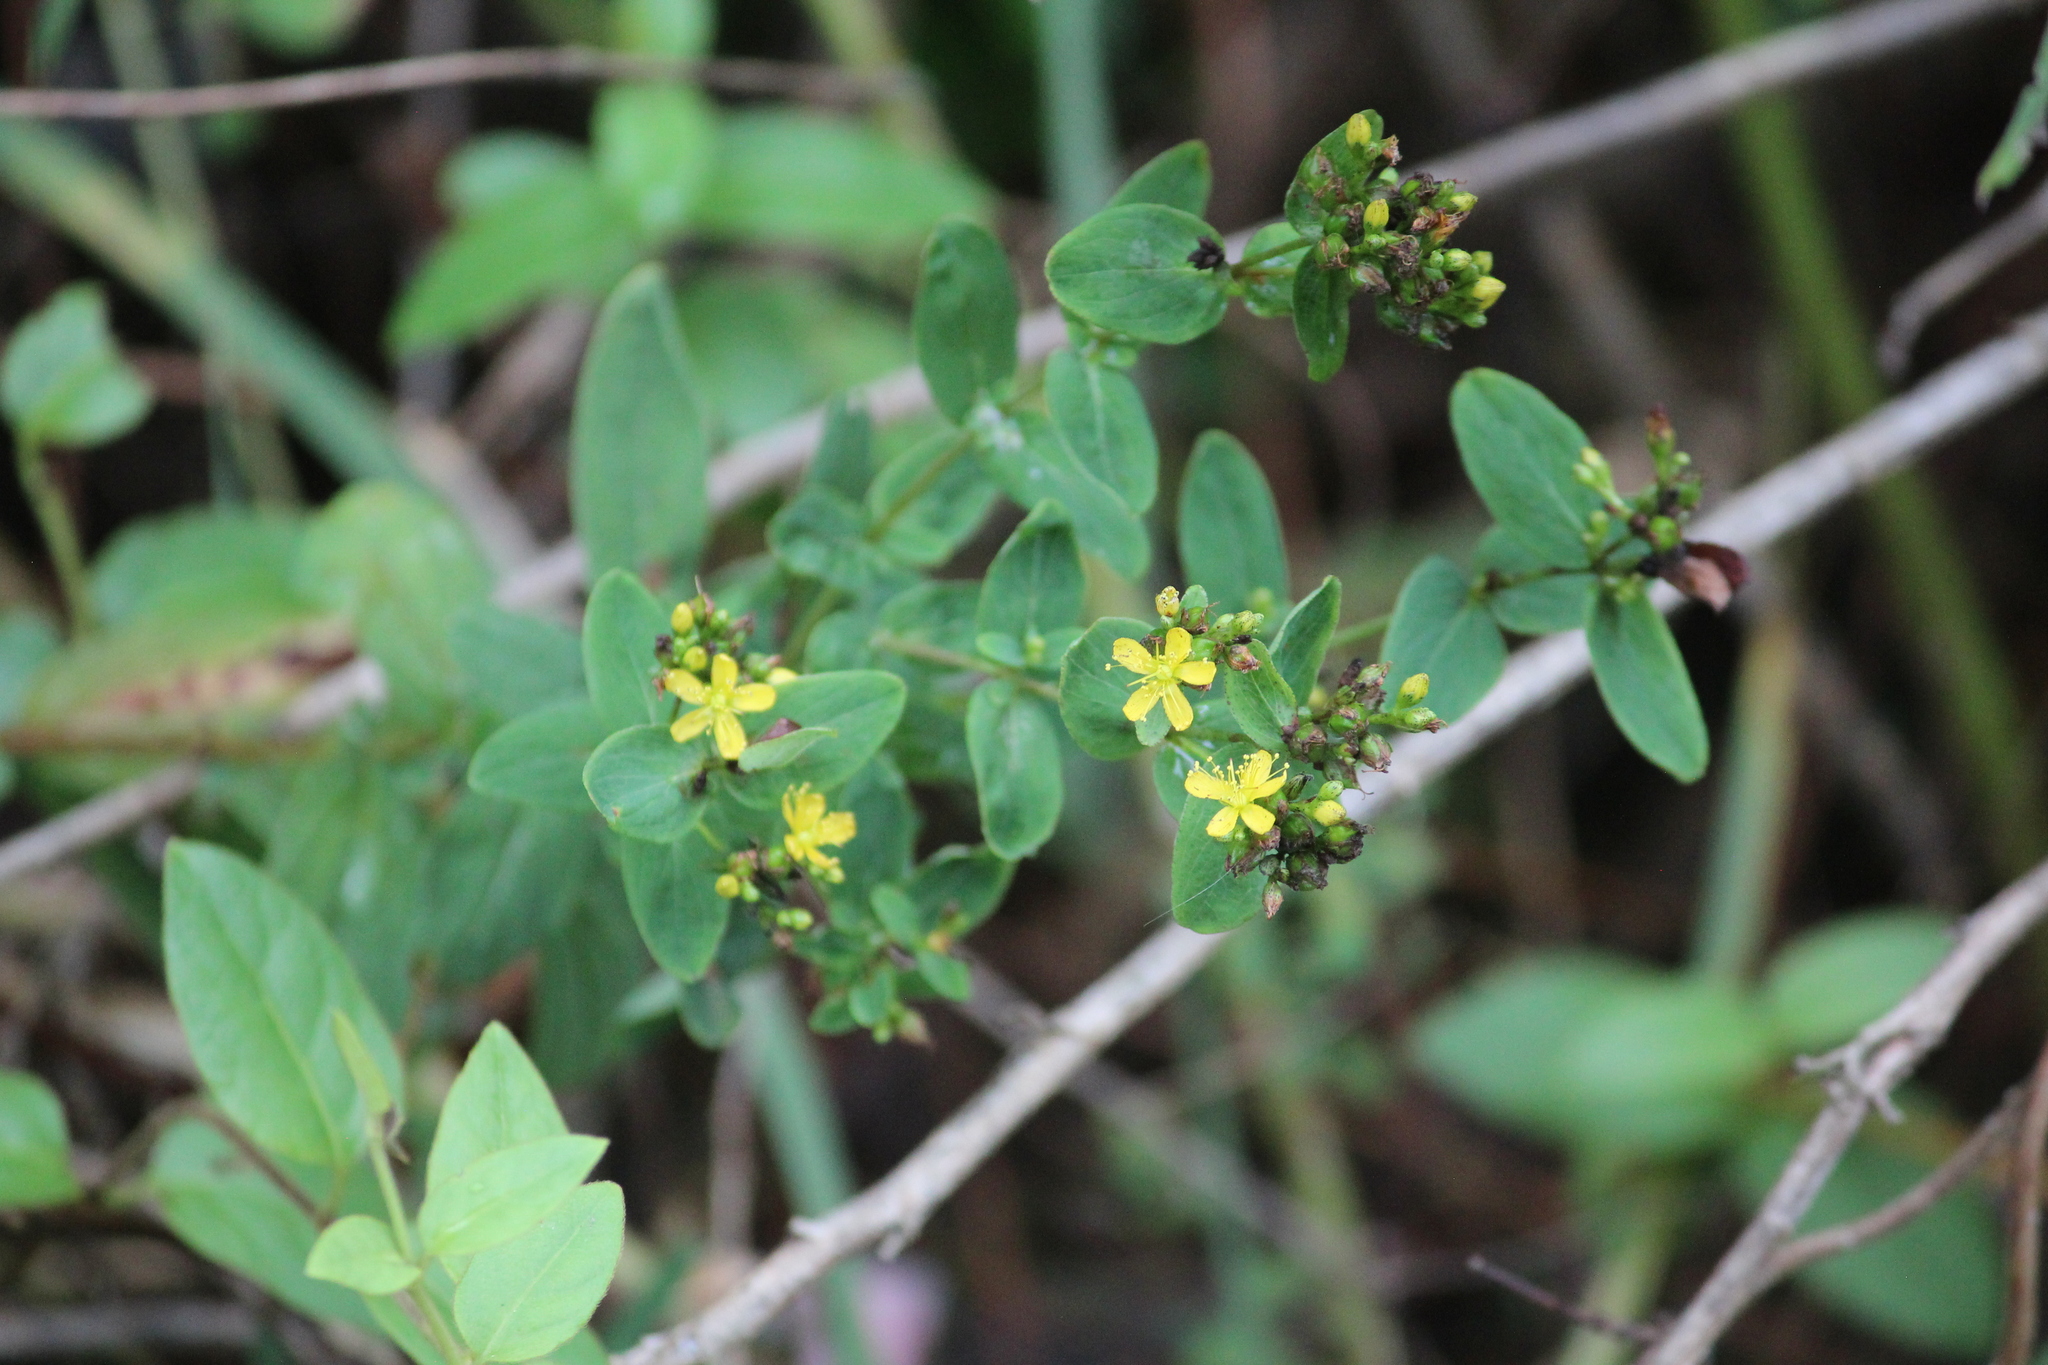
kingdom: Plantae
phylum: Tracheophyta
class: Magnoliopsida
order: Malpighiales
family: Hypericaceae
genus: Hypericum
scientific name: Hypericum punctatum
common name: Spotted st. john's-wort
